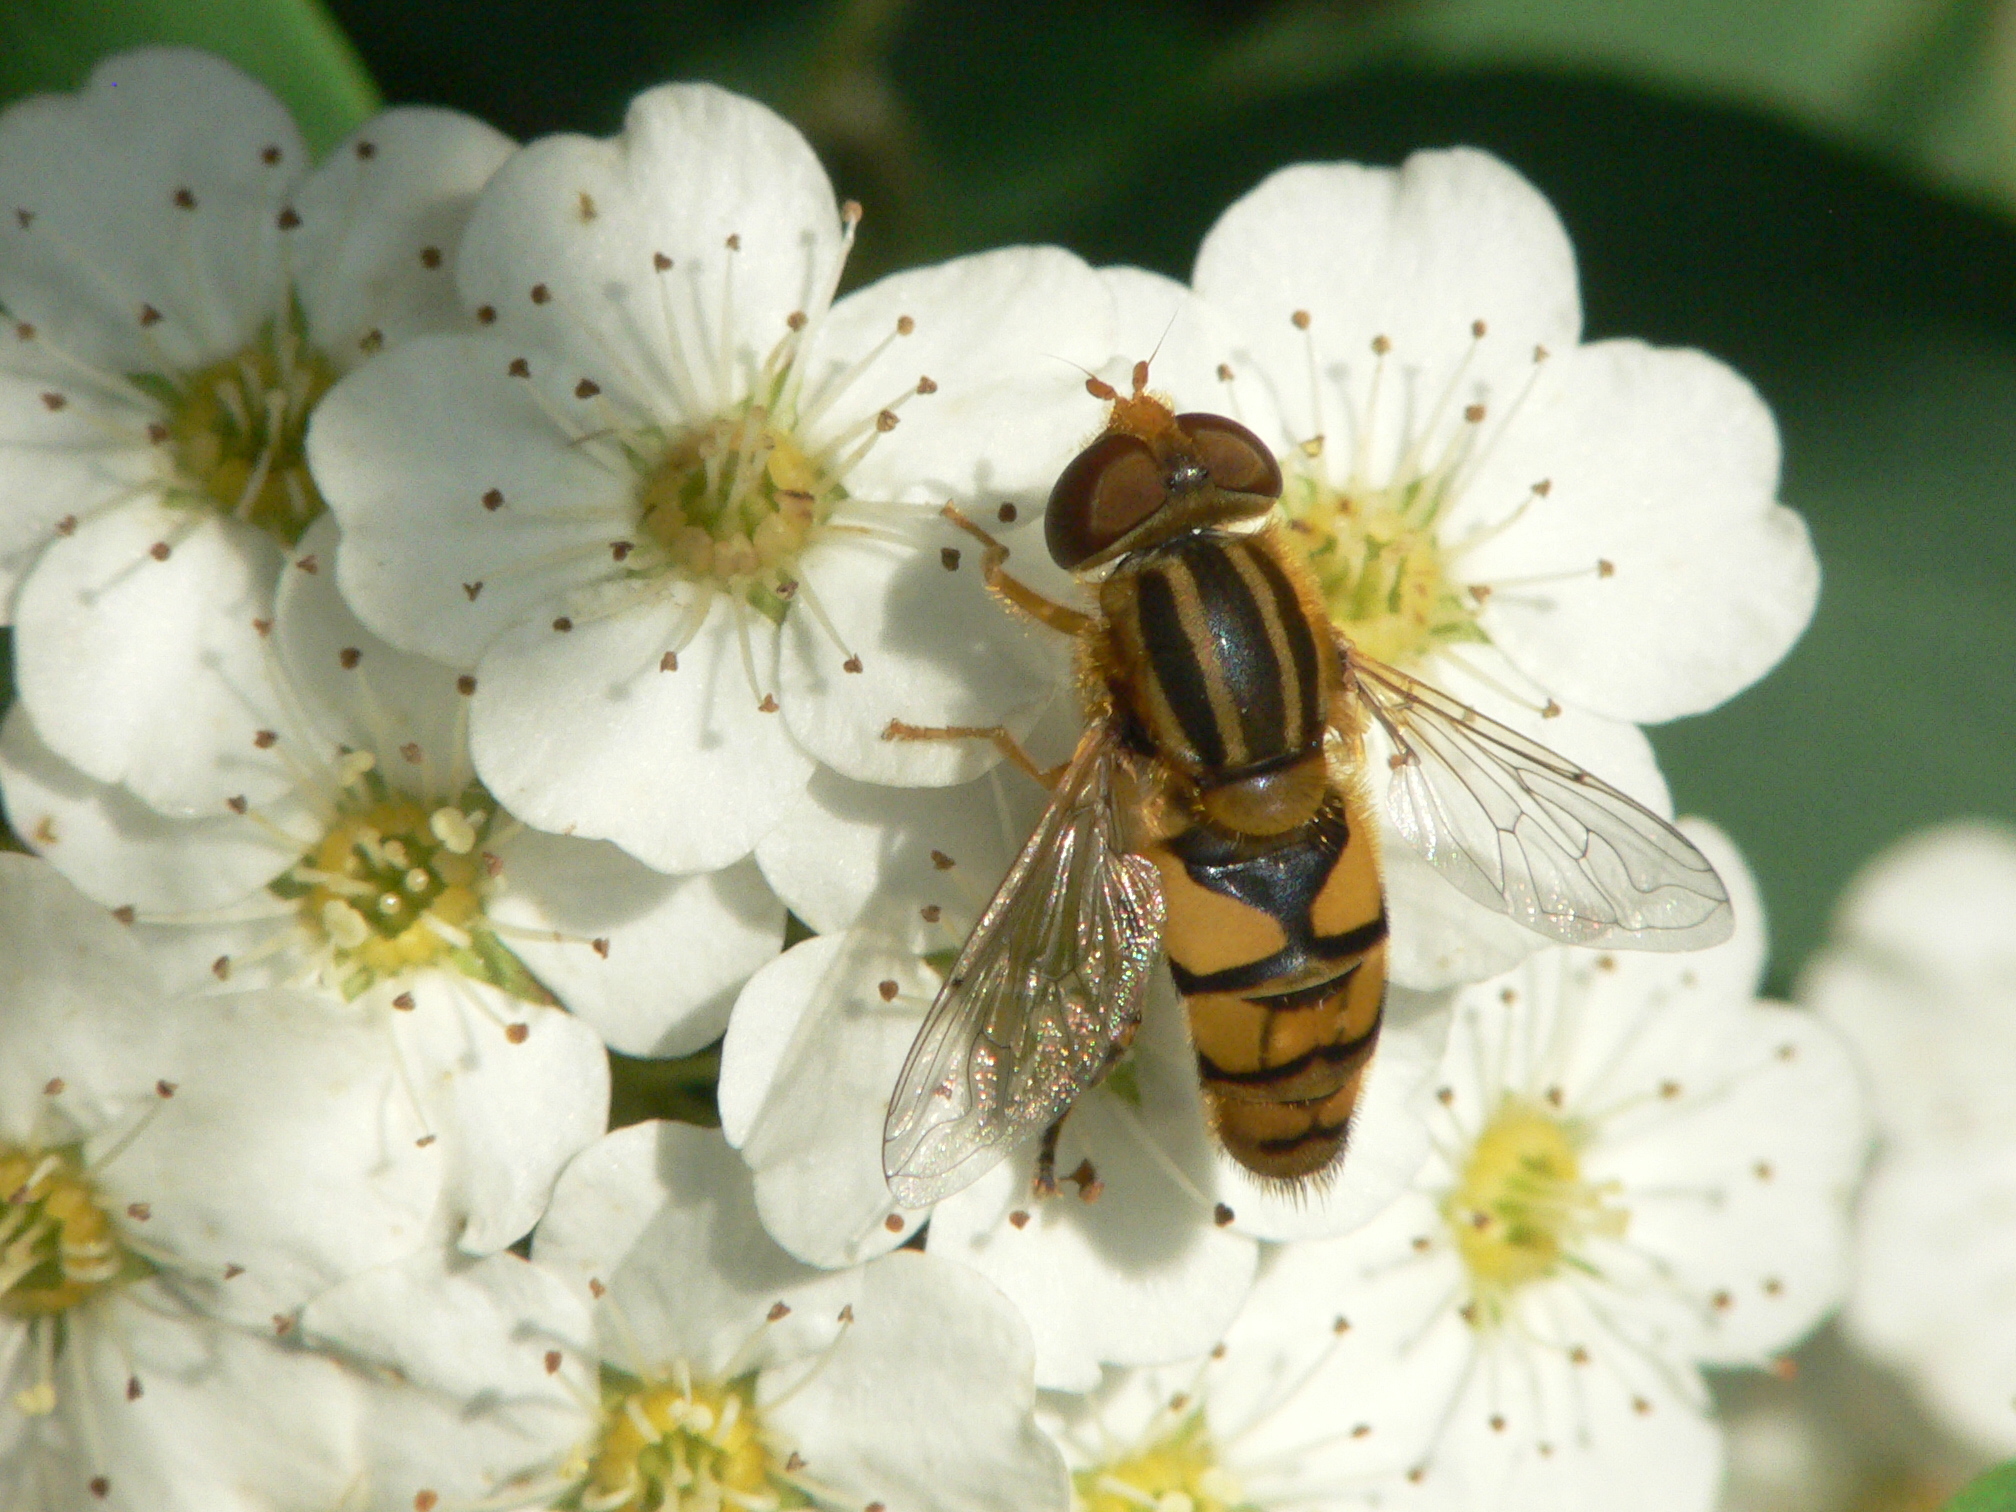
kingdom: Animalia
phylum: Arthropoda
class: Insecta
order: Diptera
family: Syrphidae
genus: Parhelophilus
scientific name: Parhelophilus integer
